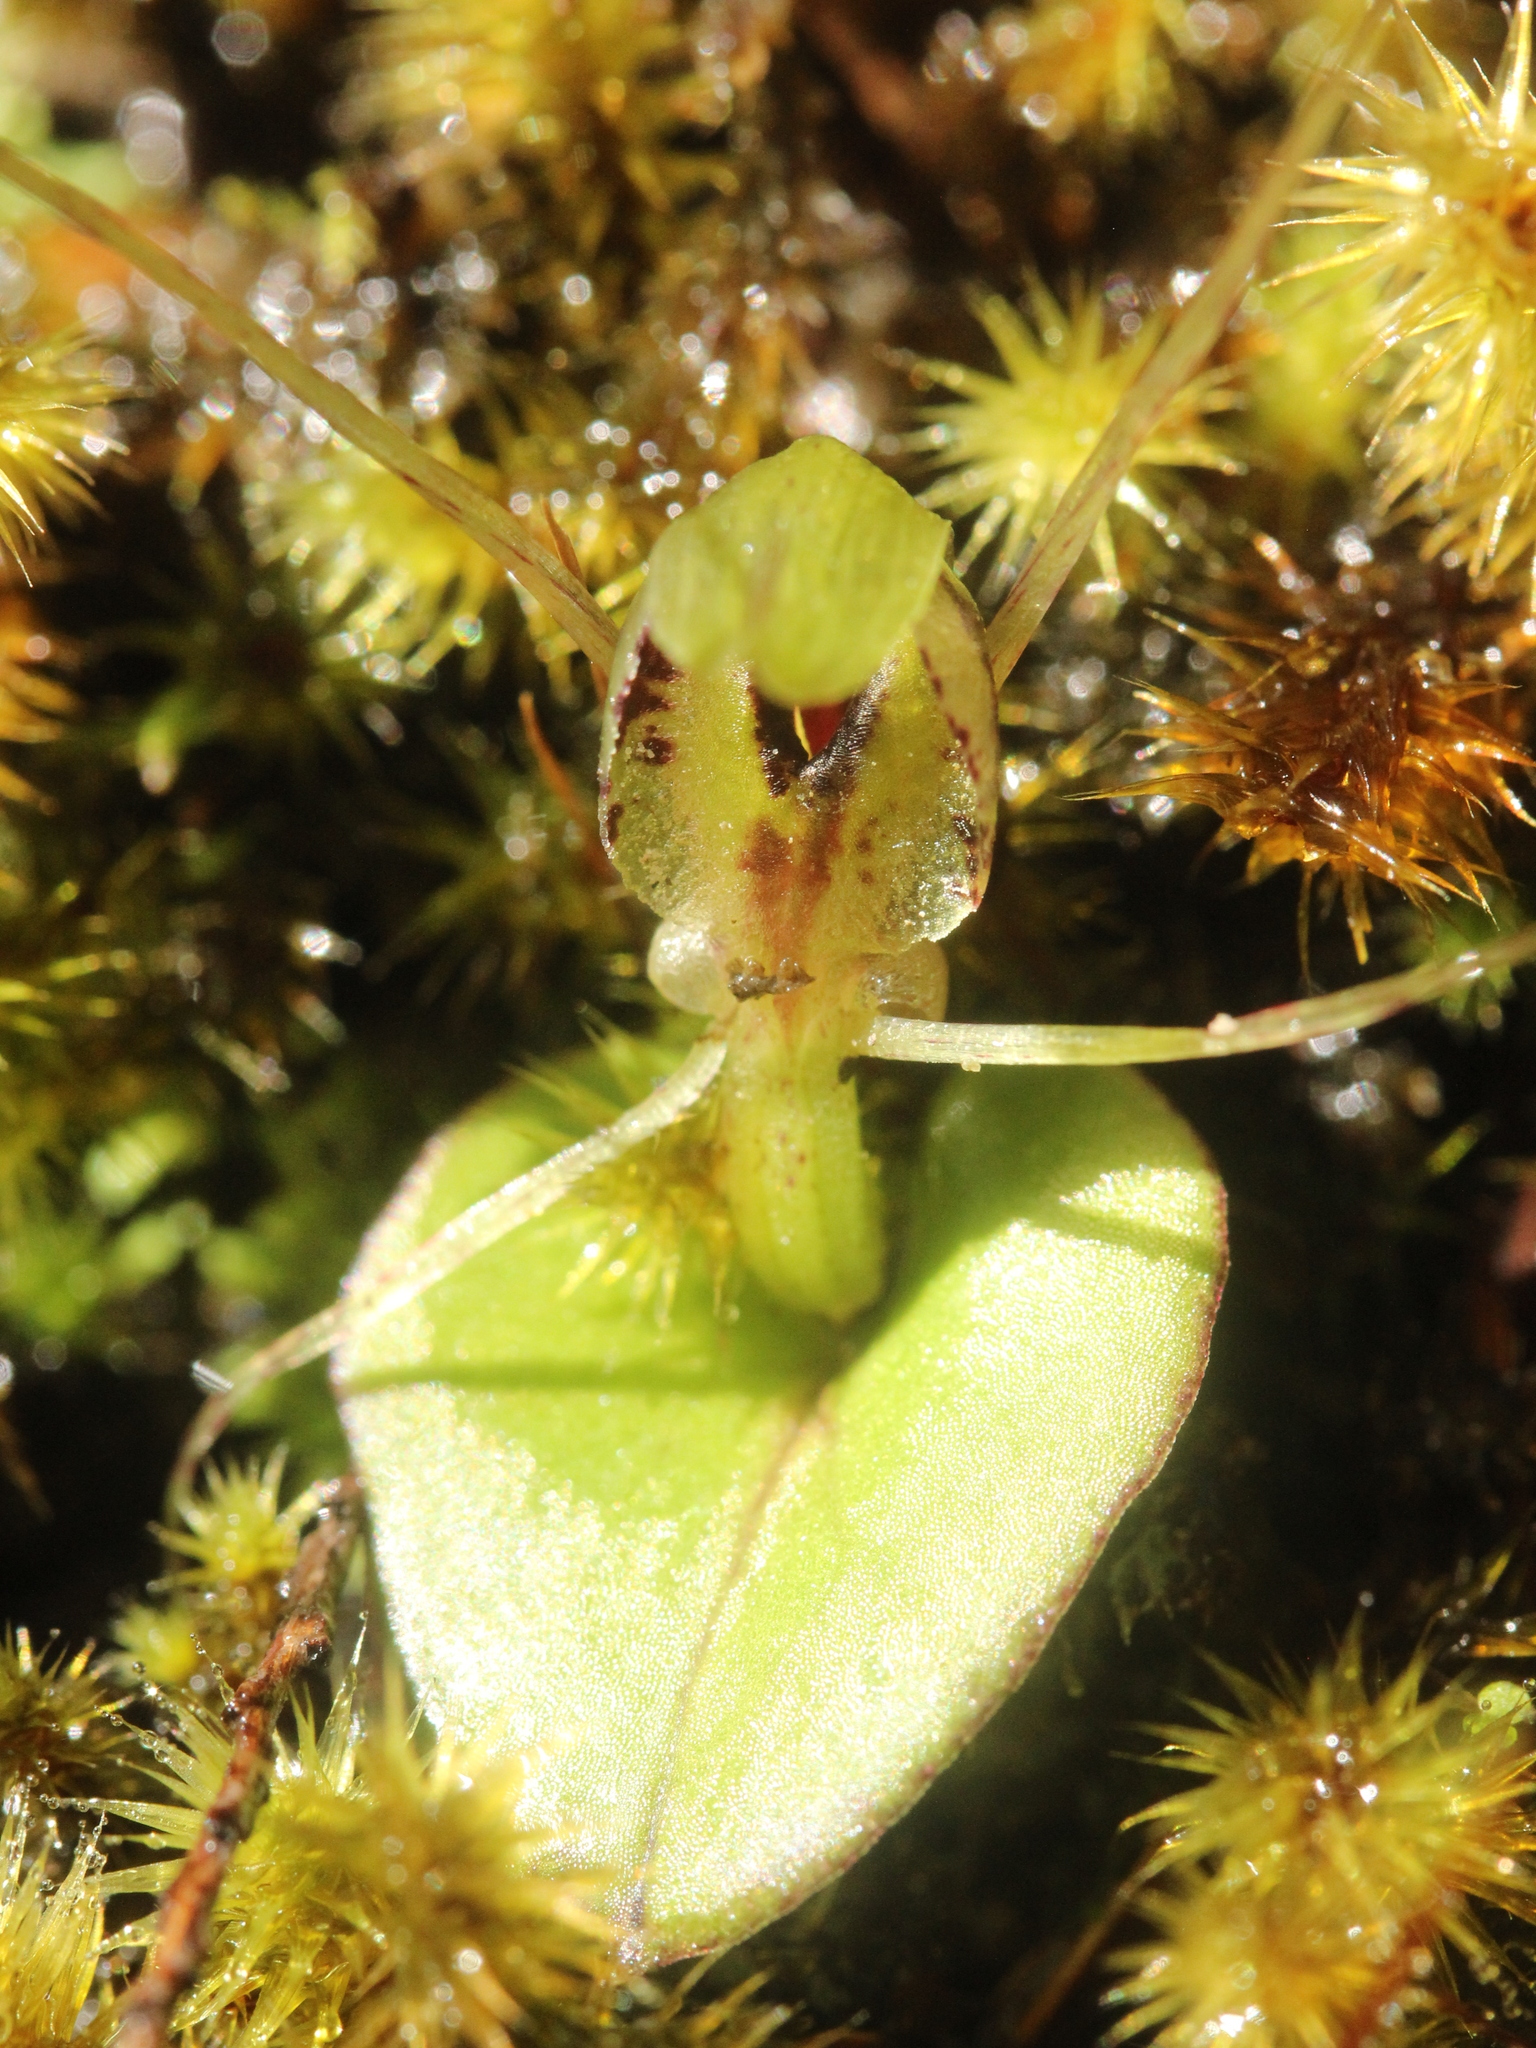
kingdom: Plantae
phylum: Tracheophyta
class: Liliopsida
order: Asparagales
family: Orchidaceae
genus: Corybas
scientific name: Corybas dienemus
